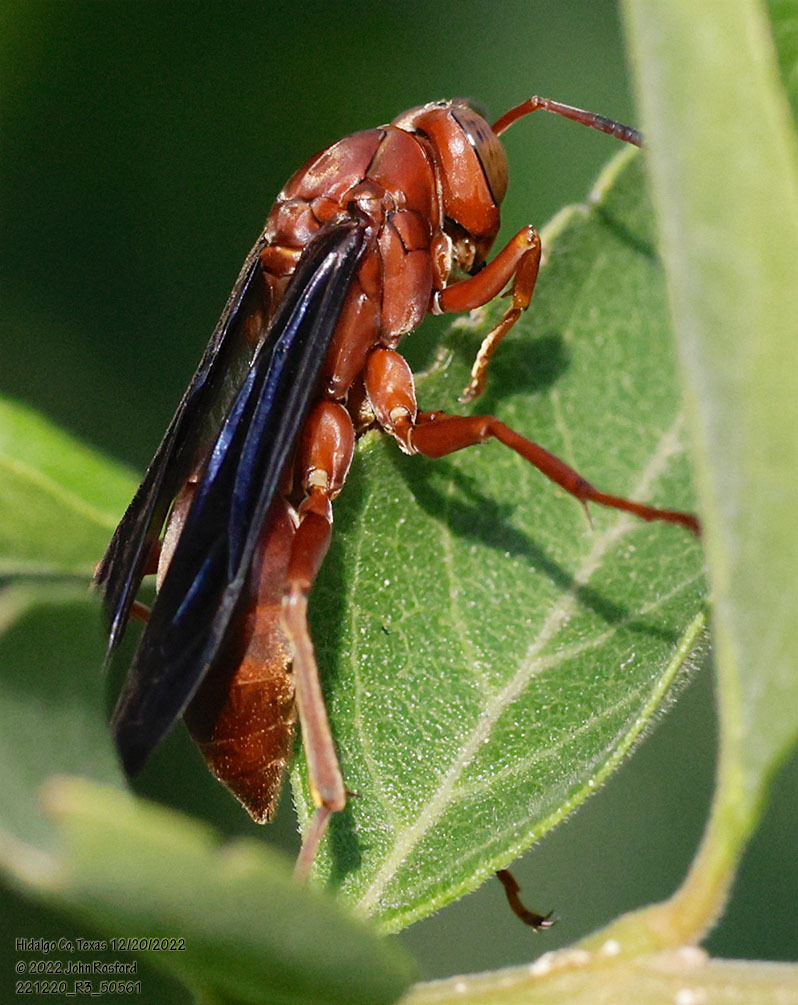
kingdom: Animalia
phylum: Arthropoda
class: Insecta
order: Hymenoptera
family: Vespidae
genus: Fuscopolistes
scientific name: Fuscopolistes
